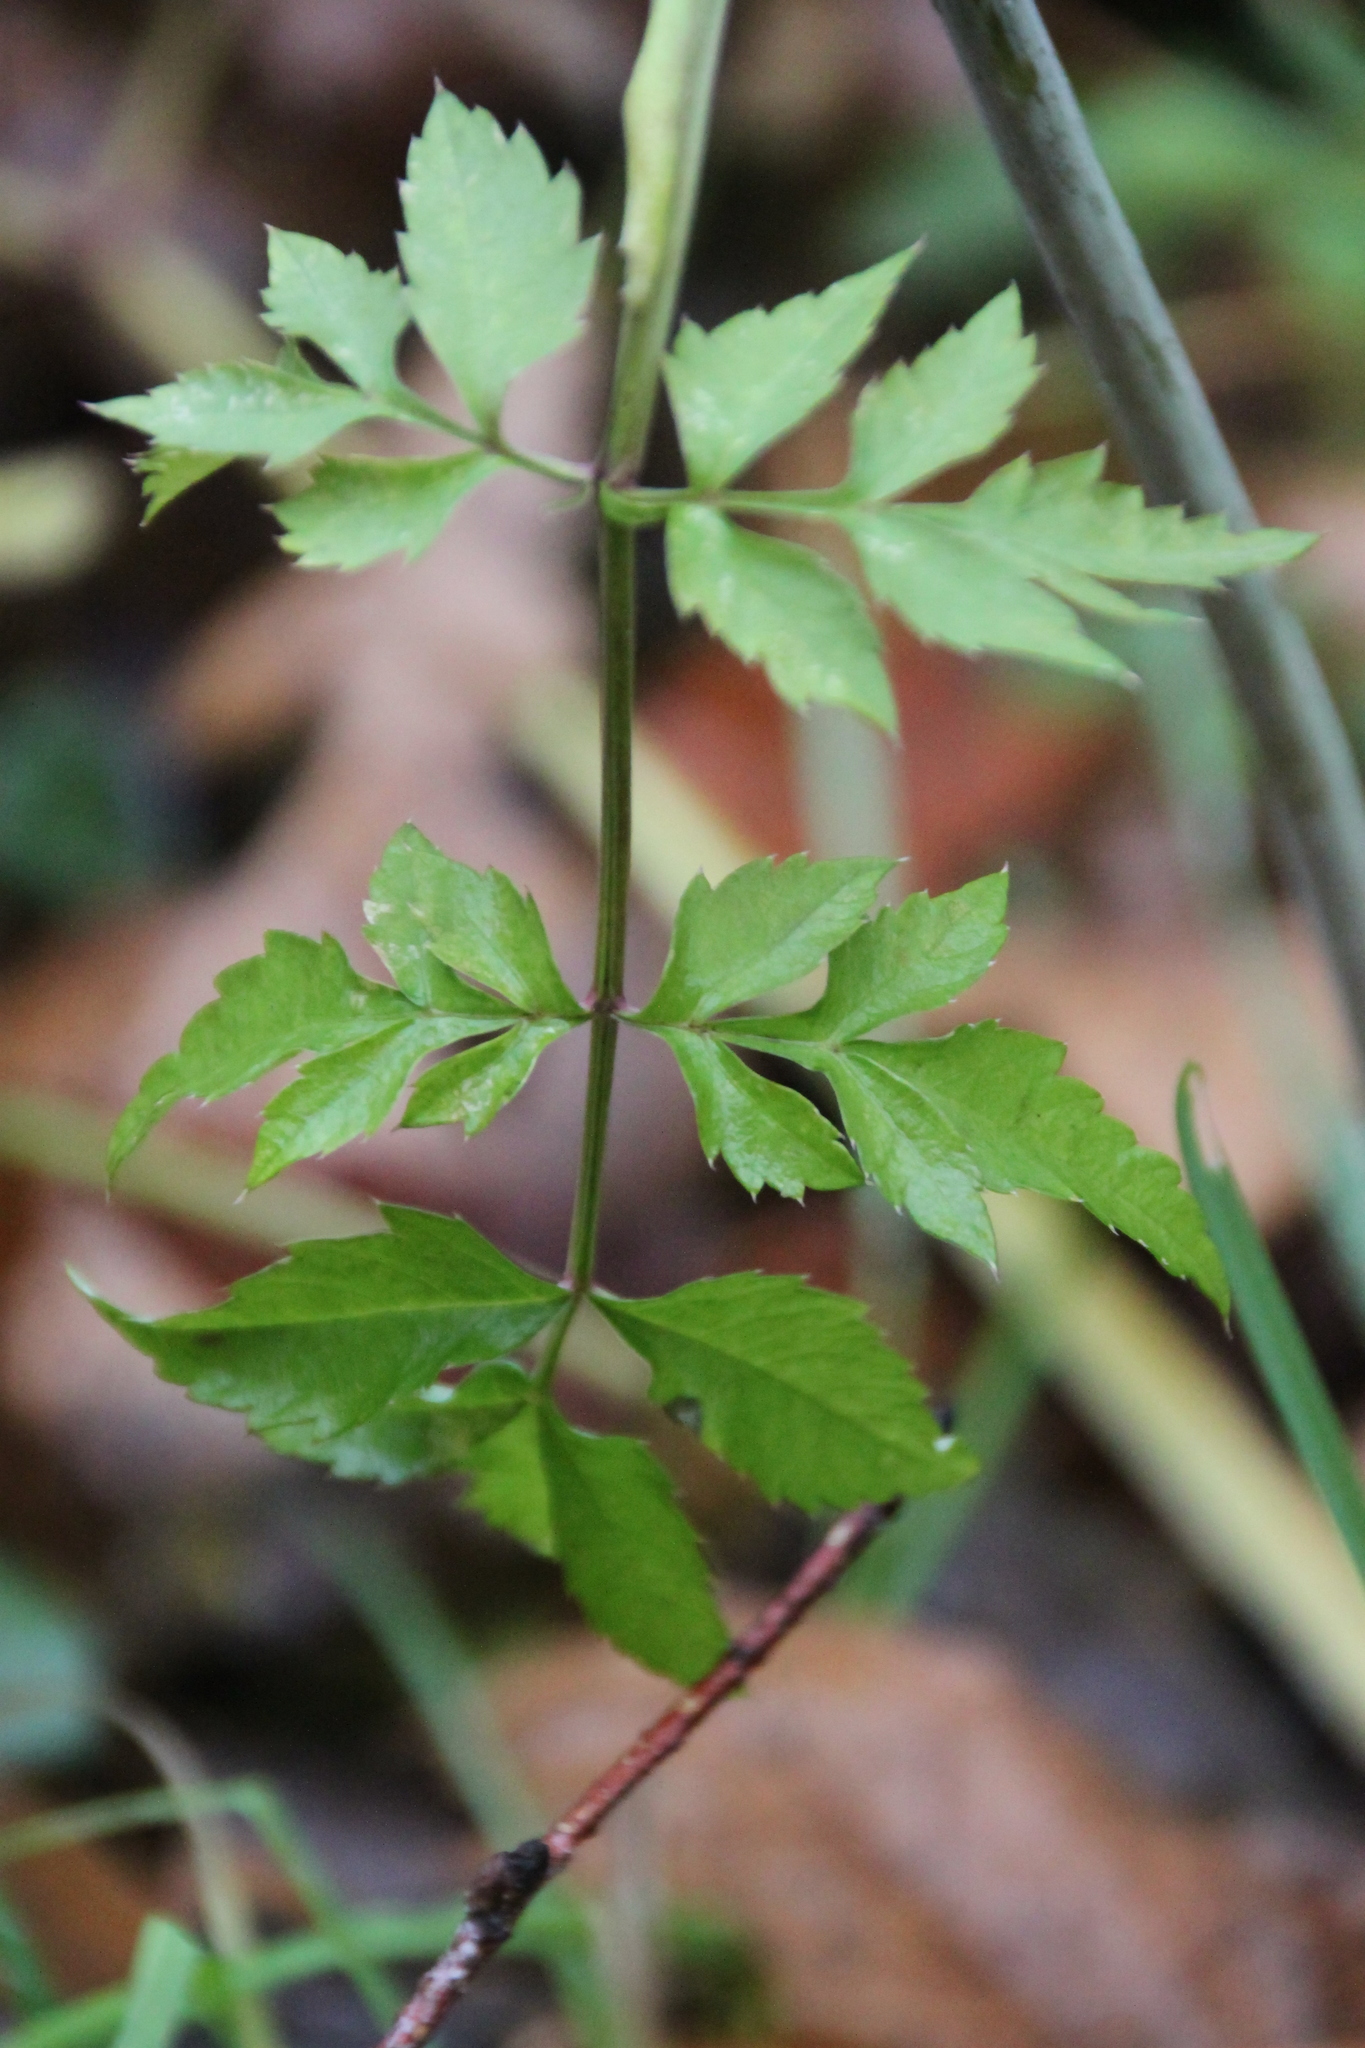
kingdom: Plantae
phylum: Tracheophyta
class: Magnoliopsida
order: Apiales
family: Apiaceae
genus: Angelica
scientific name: Angelica sylvestris
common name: Wild angelica
